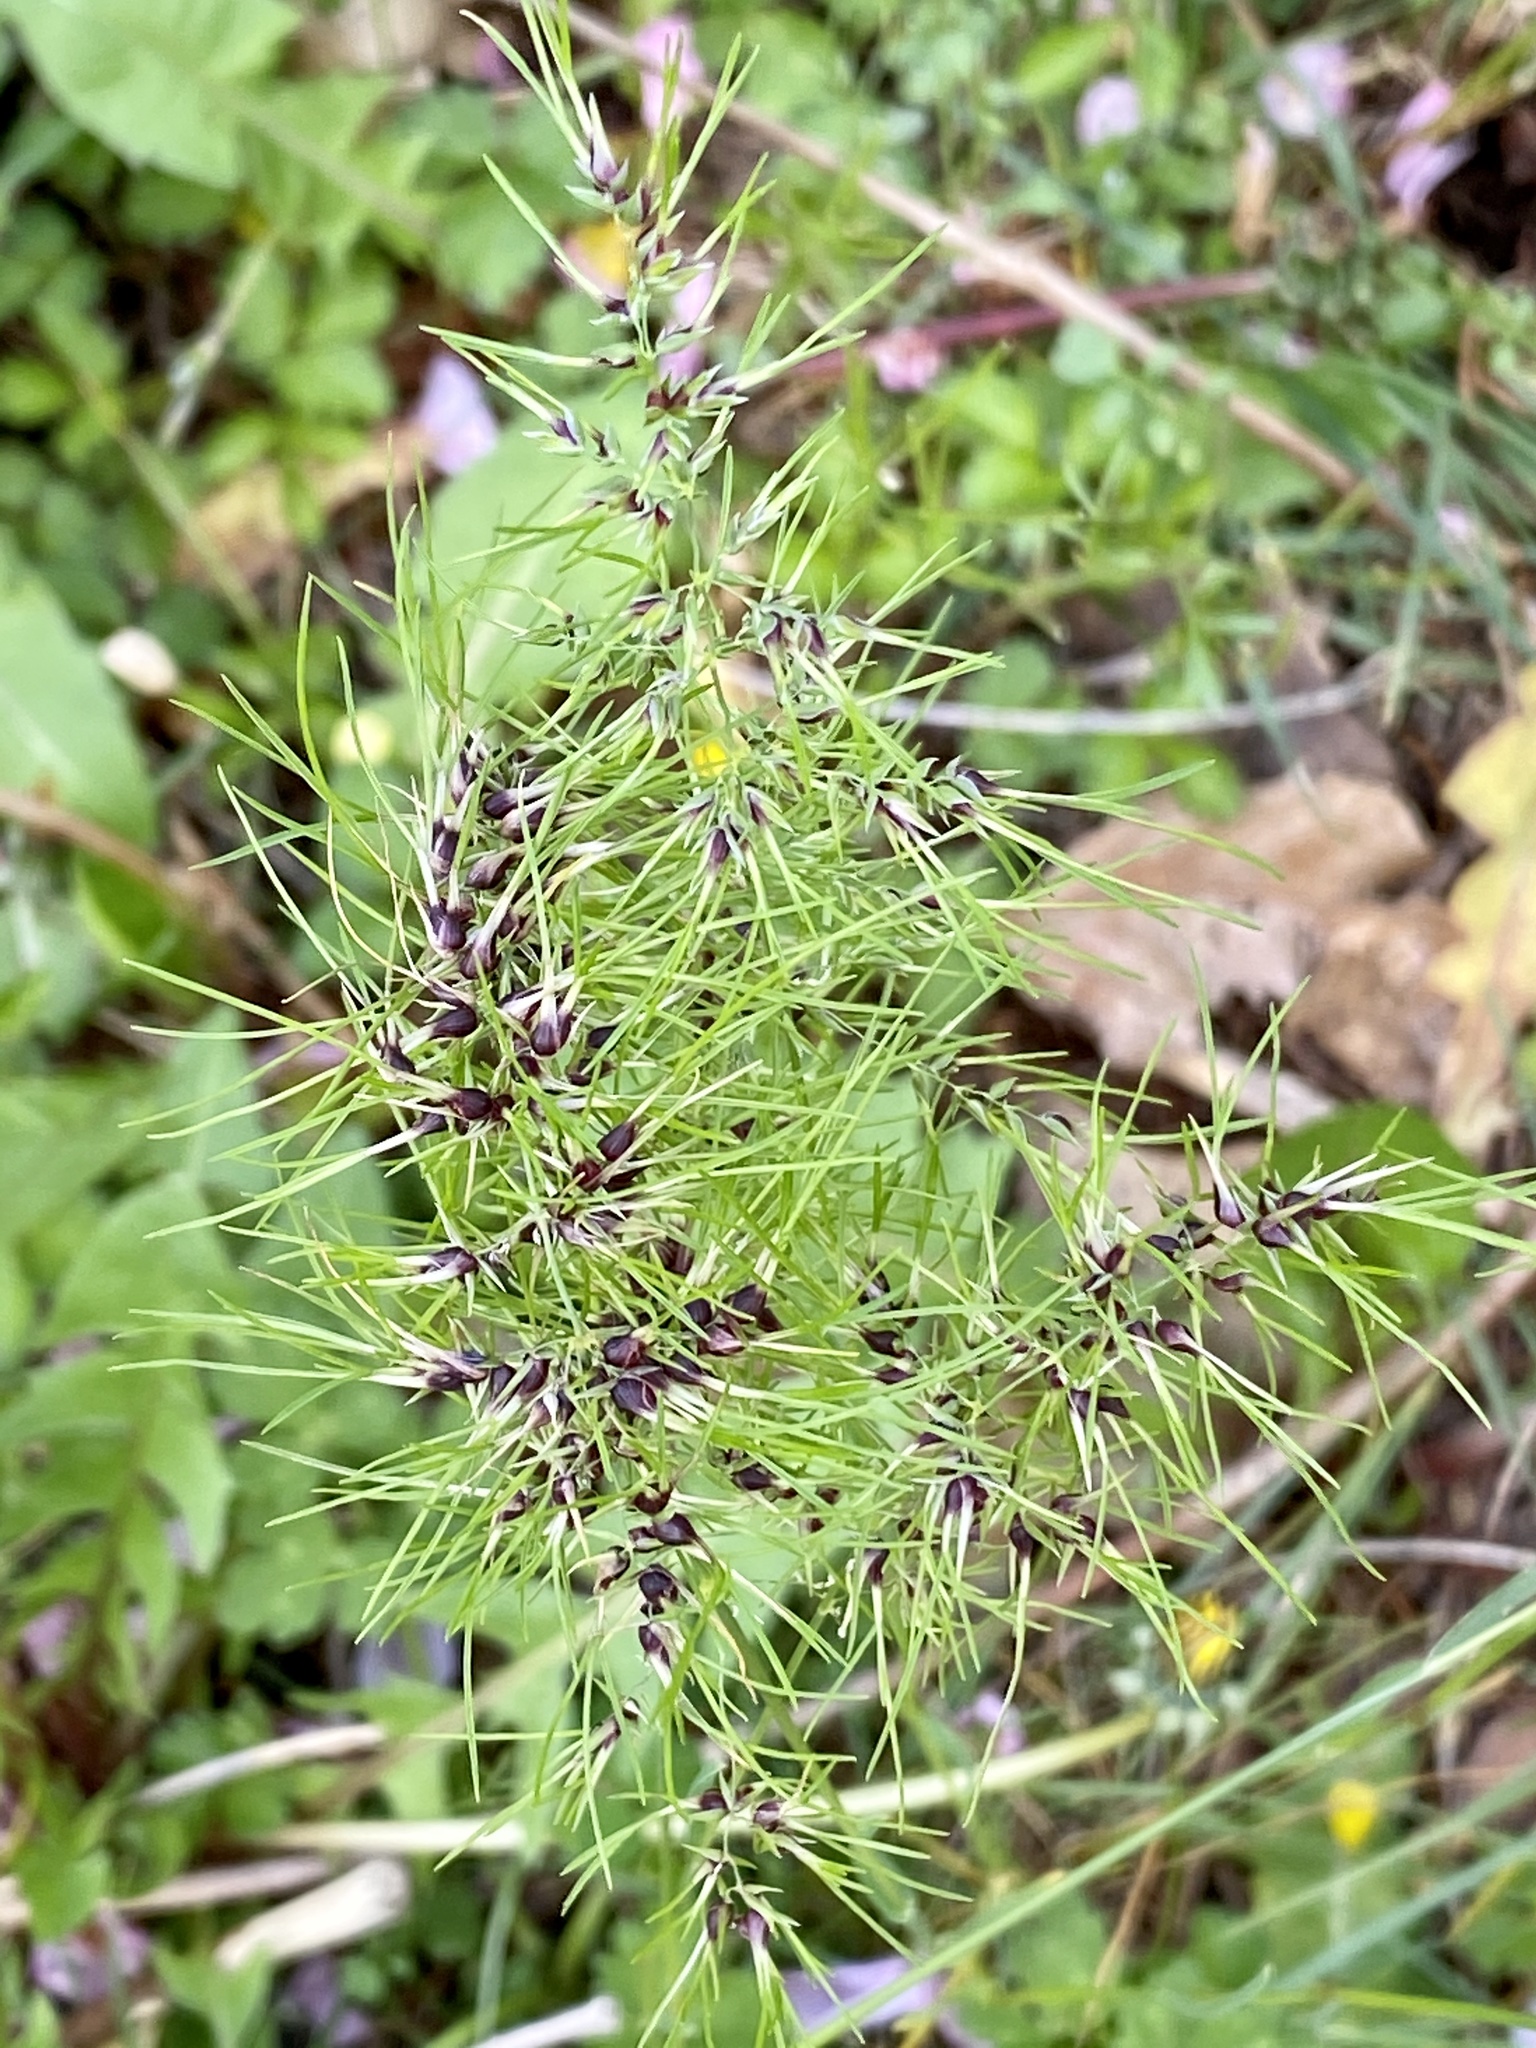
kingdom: Plantae
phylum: Tracheophyta
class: Liliopsida
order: Poales
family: Poaceae
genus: Poa
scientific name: Poa bulbosa
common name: Bulbous bluegrass
